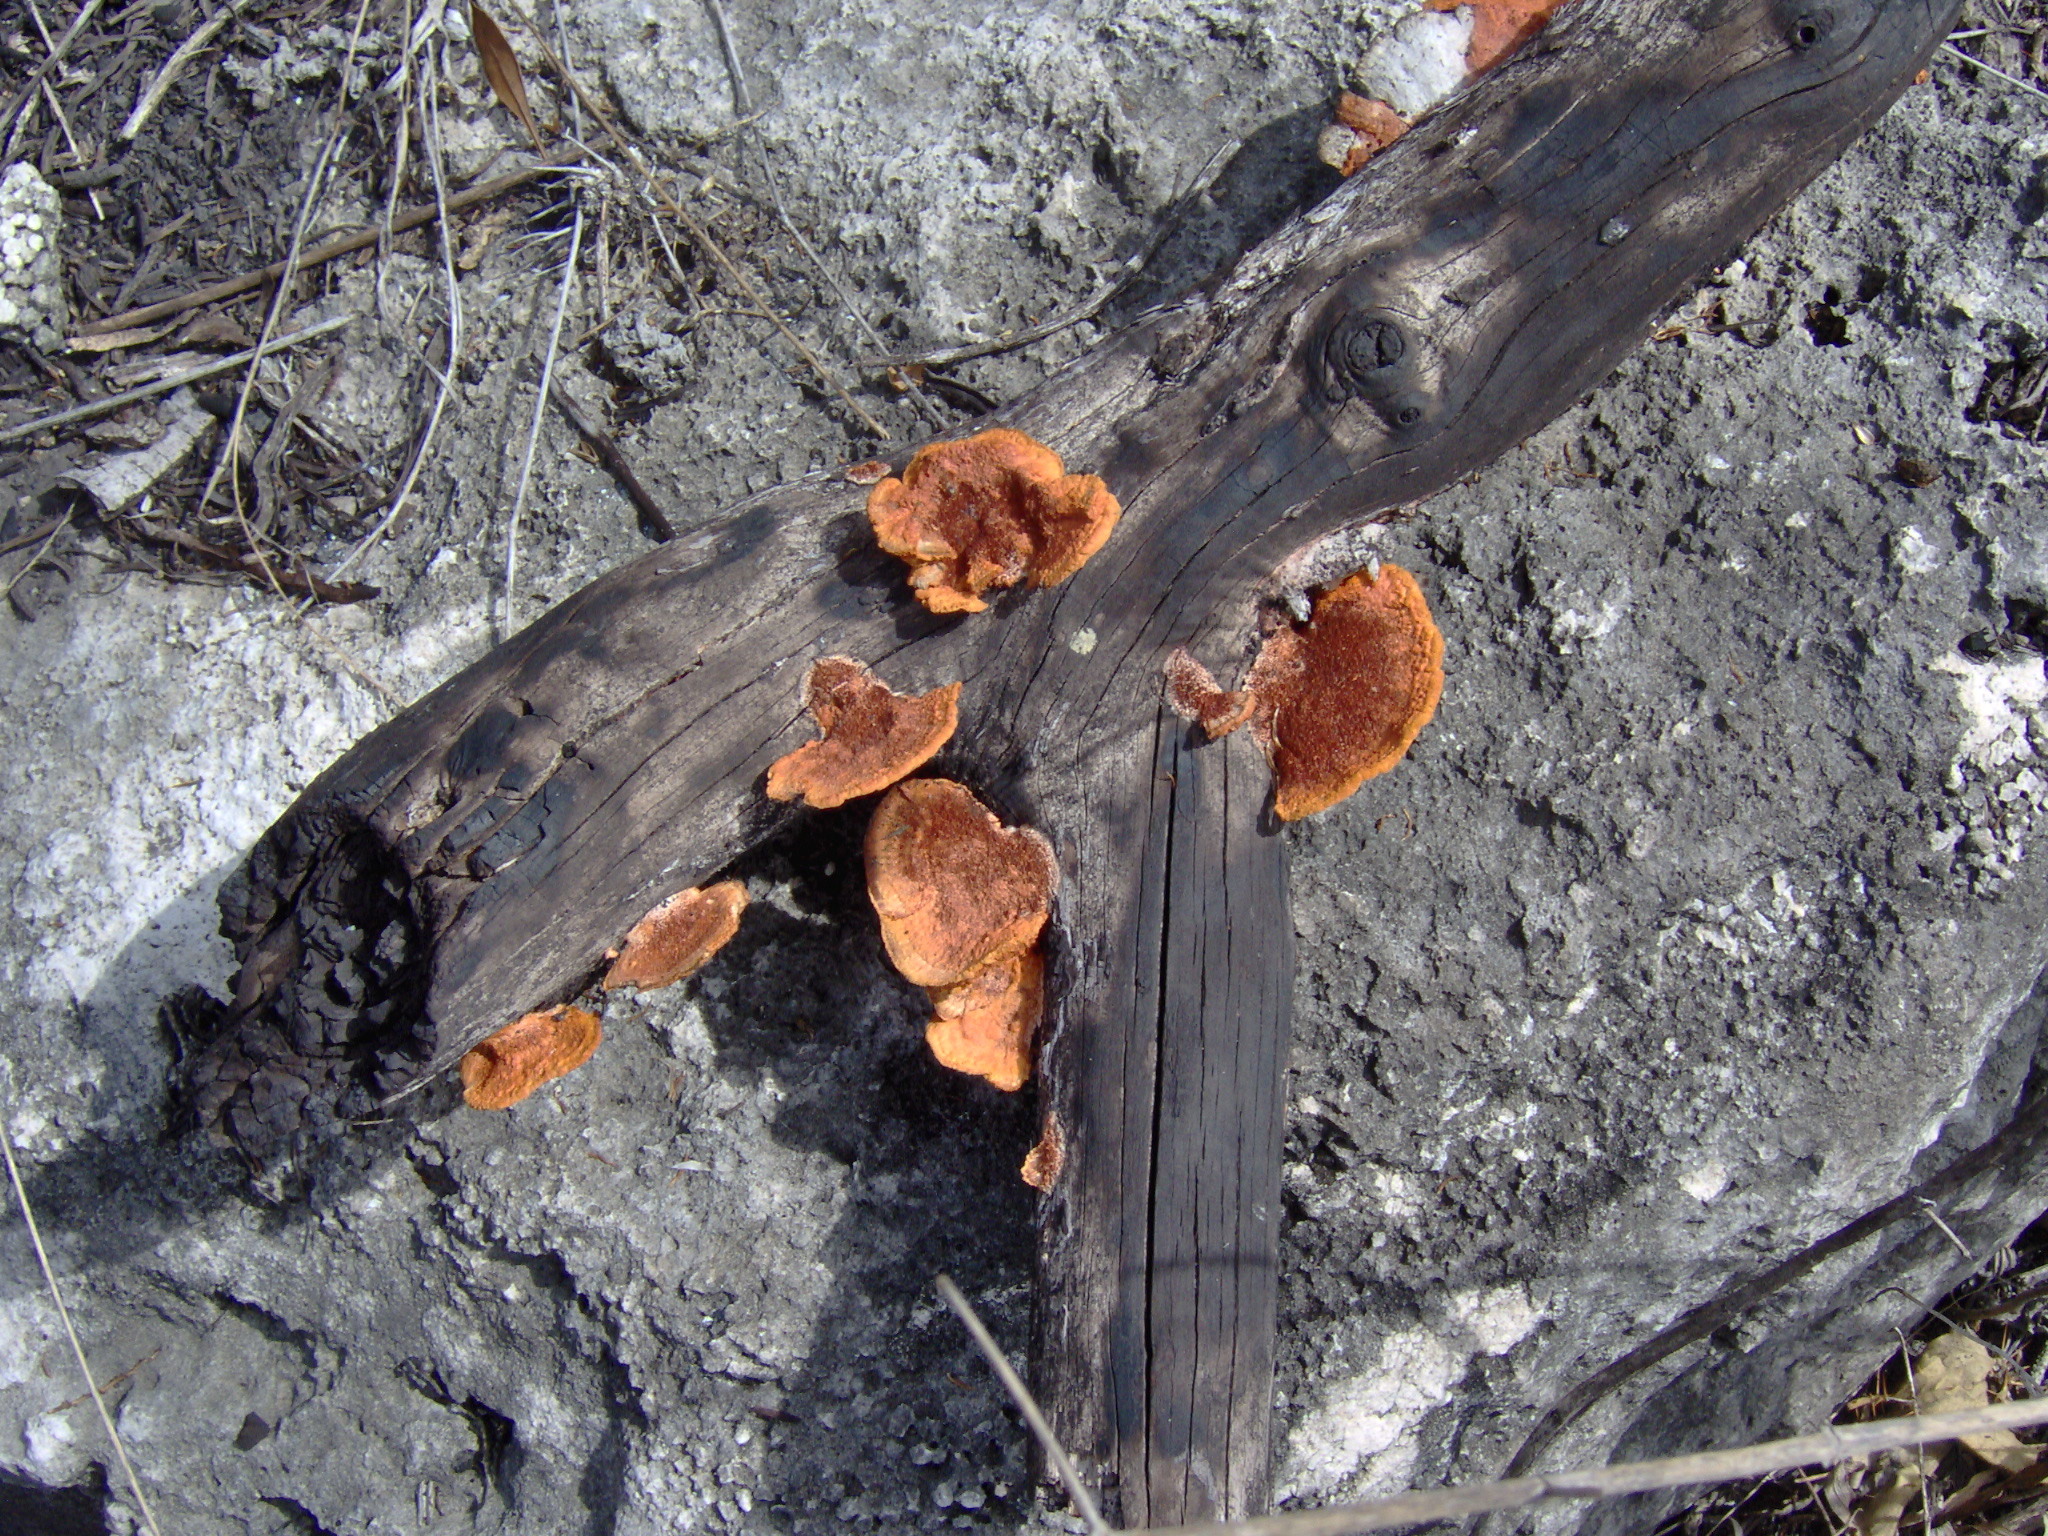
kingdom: Fungi
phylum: Basidiomycota
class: Agaricomycetes
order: Polyporales
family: Polyporaceae
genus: Trametes
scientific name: Trametes coccinea
